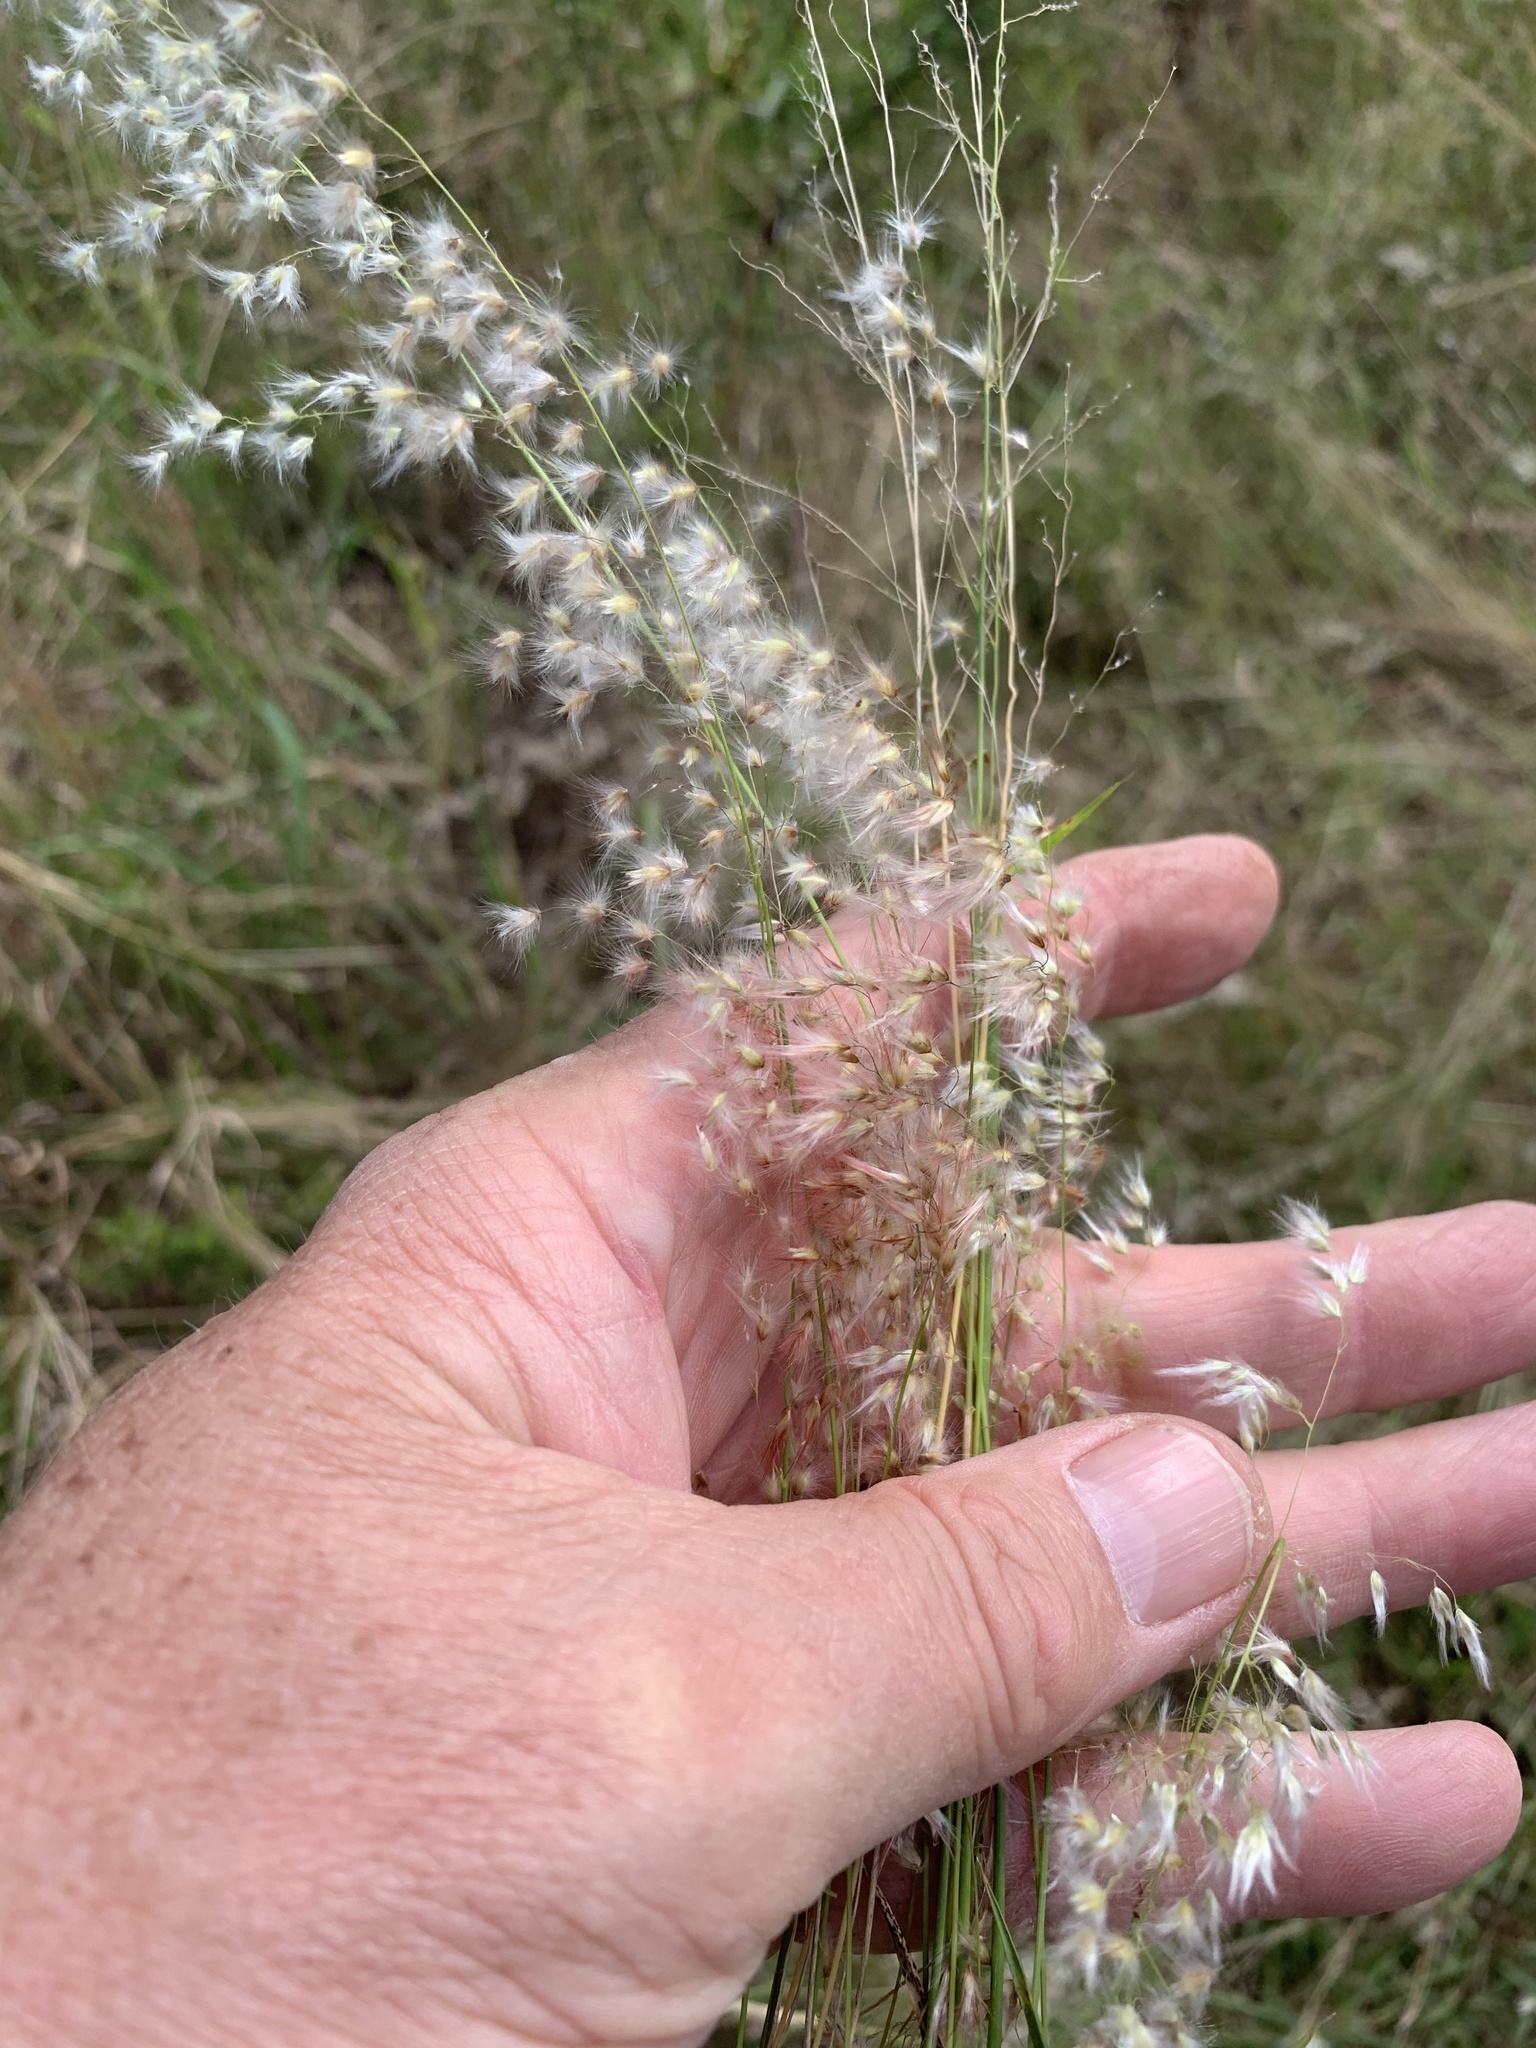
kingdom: Plantae
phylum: Tracheophyta
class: Liliopsida
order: Poales
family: Poaceae
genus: Melinis
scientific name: Melinis repens
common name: Rose natal grass
